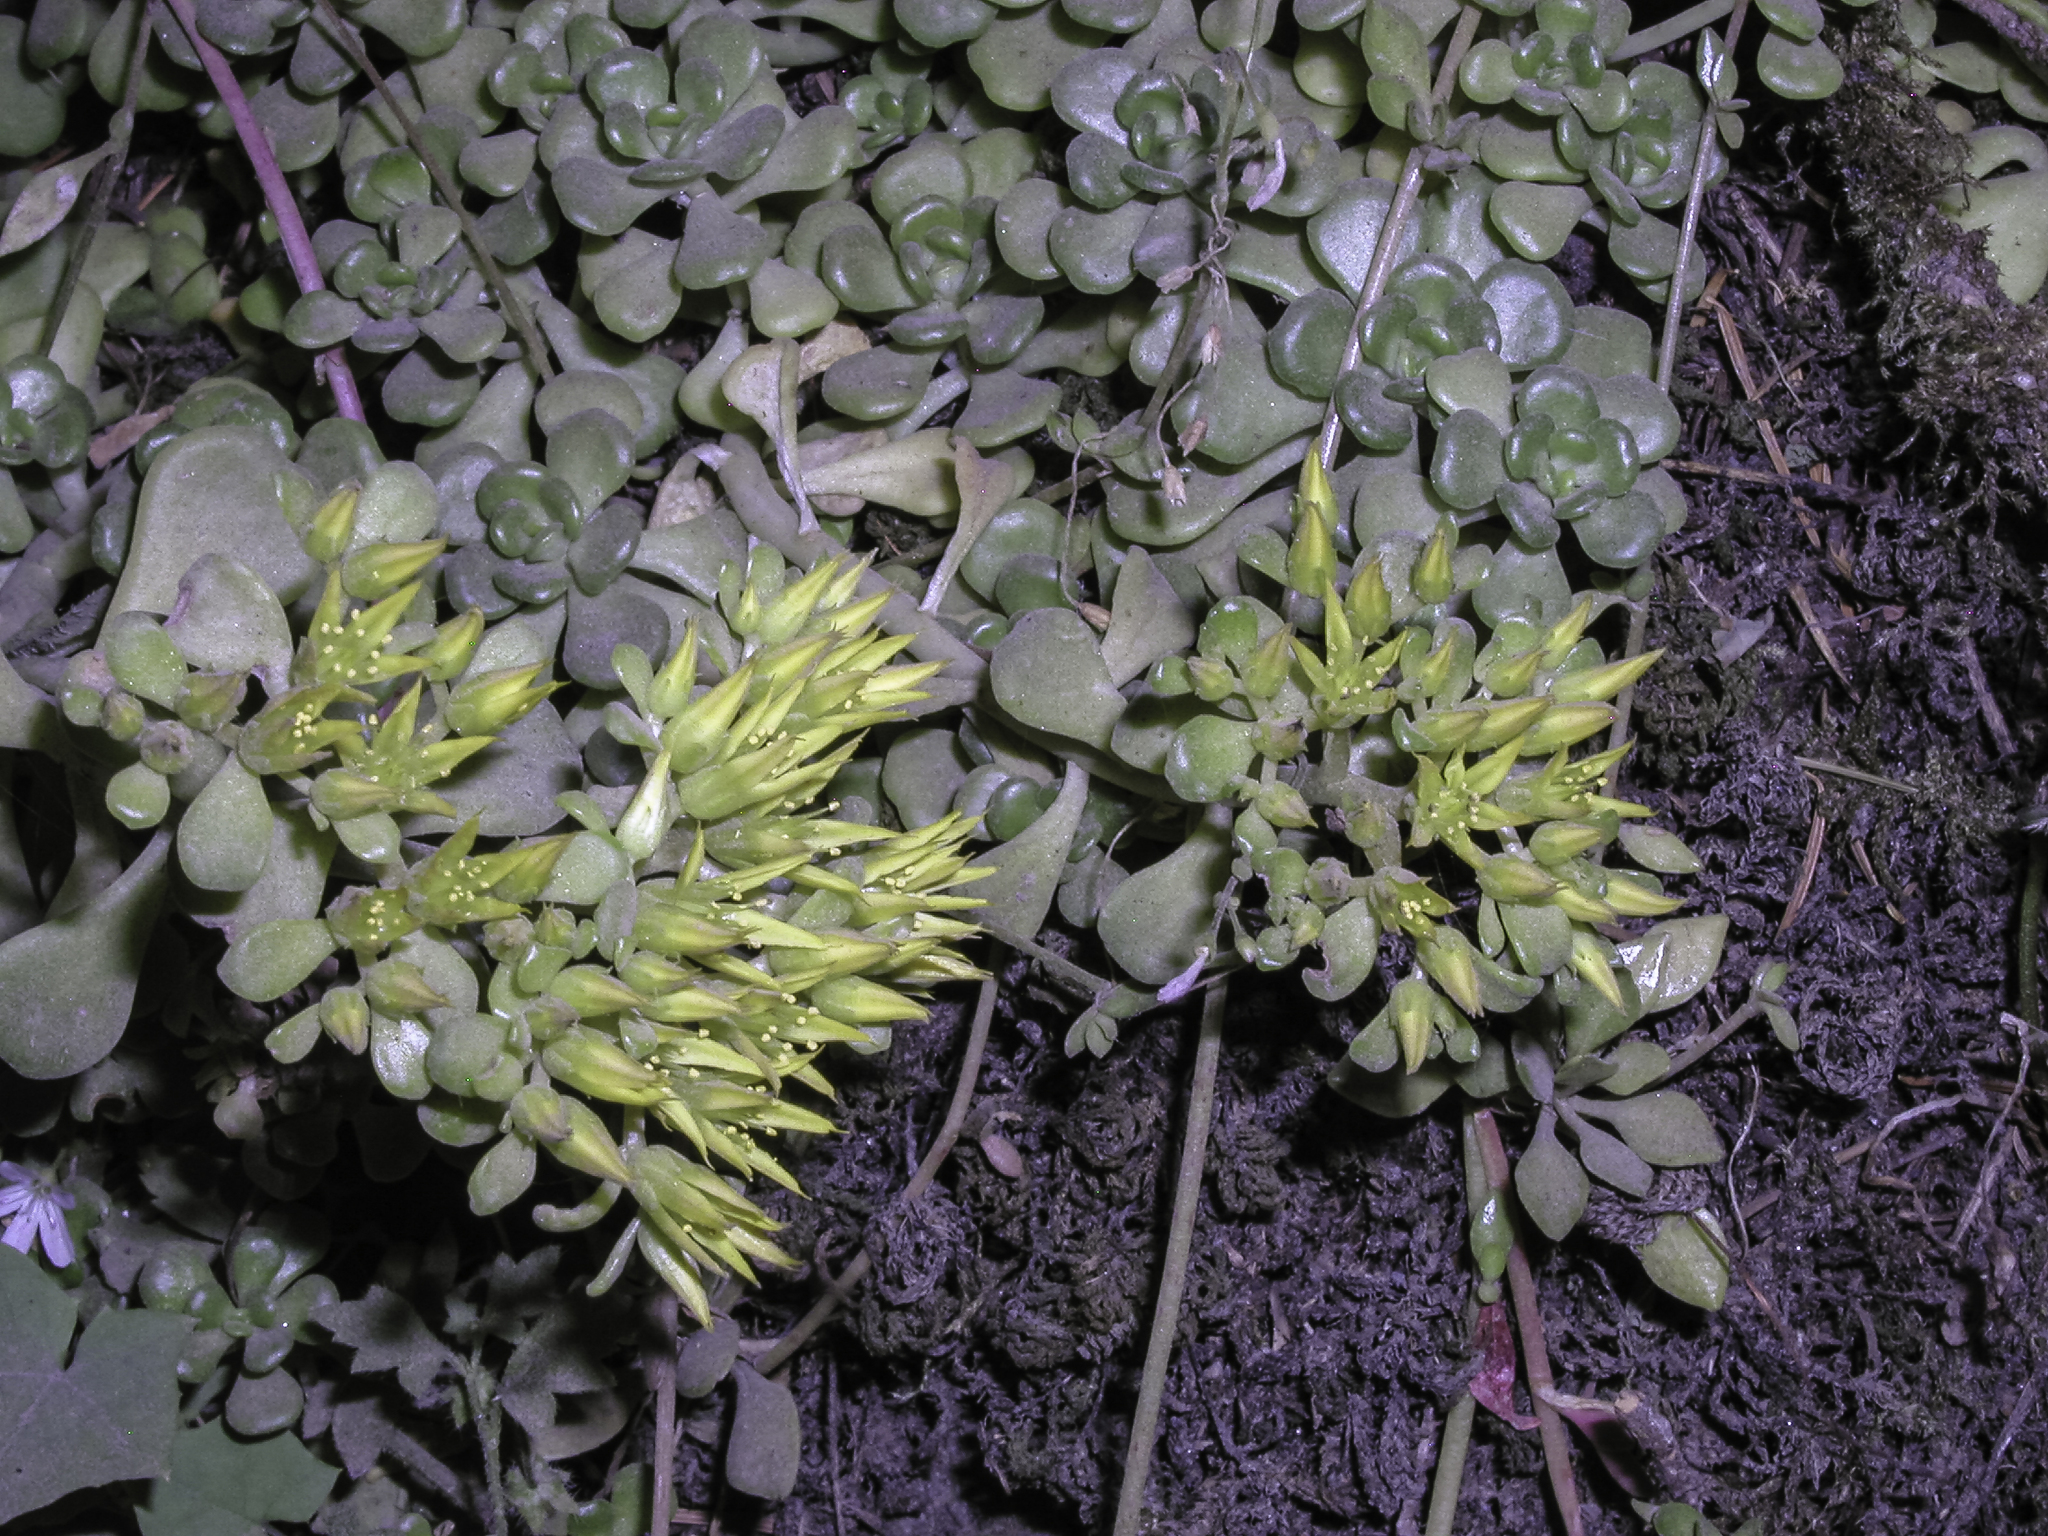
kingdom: Plantae
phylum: Tracheophyta
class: Magnoliopsida
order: Saxifragales
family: Crassulaceae
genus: Sedum
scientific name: Sedum oreganum
